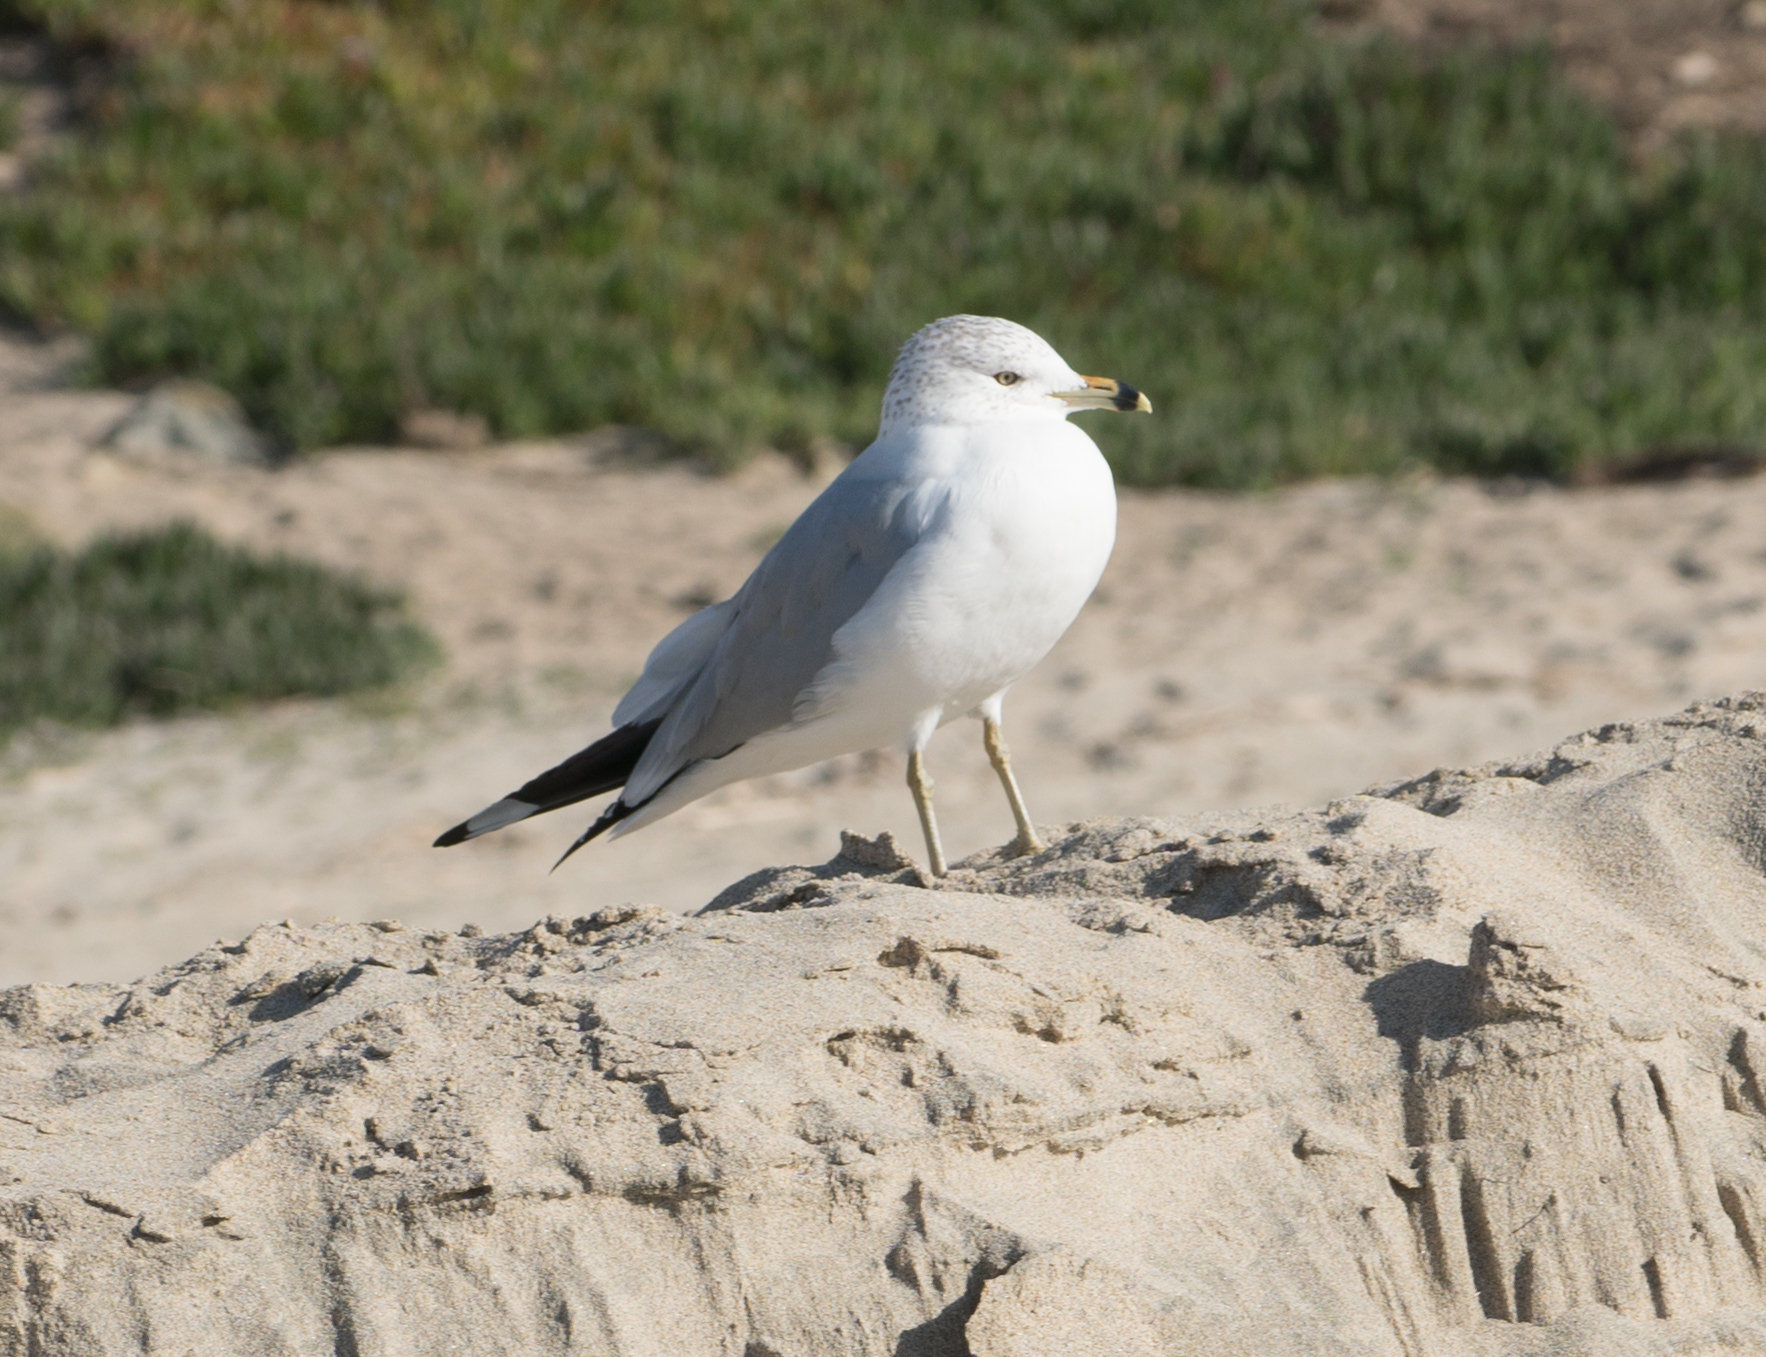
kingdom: Animalia
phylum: Chordata
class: Aves
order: Charadriiformes
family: Laridae
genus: Larus
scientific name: Larus delawarensis
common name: Ring-billed gull
